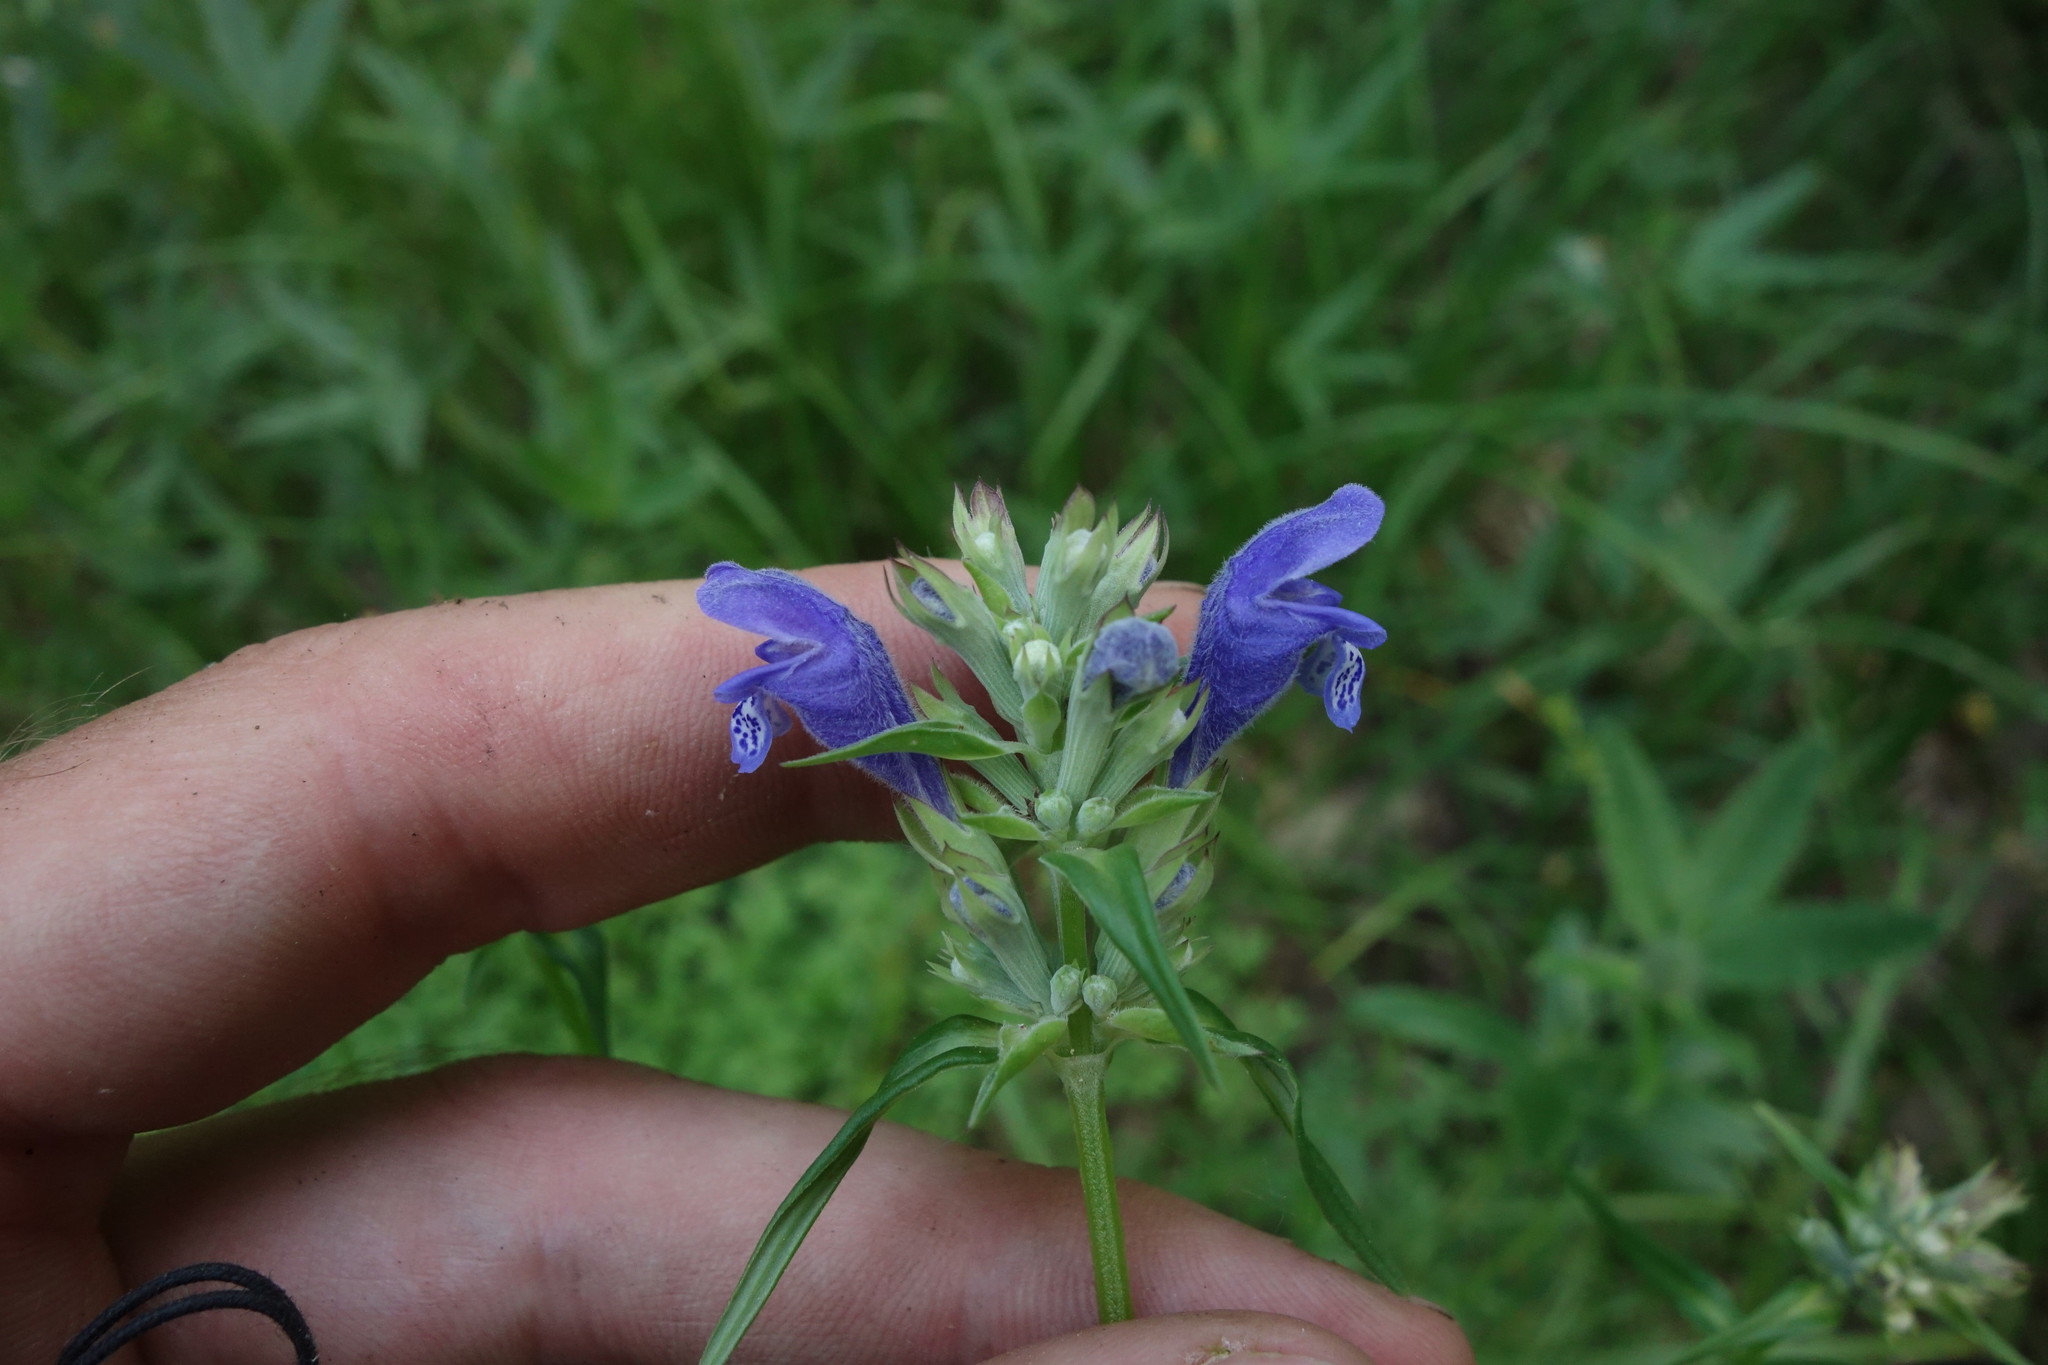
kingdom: Plantae
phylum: Tracheophyta
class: Magnoliopsida
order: Lamiales
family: Lamiaceae
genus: Dracocephalum
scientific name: Dracocephalum ruyschiana
